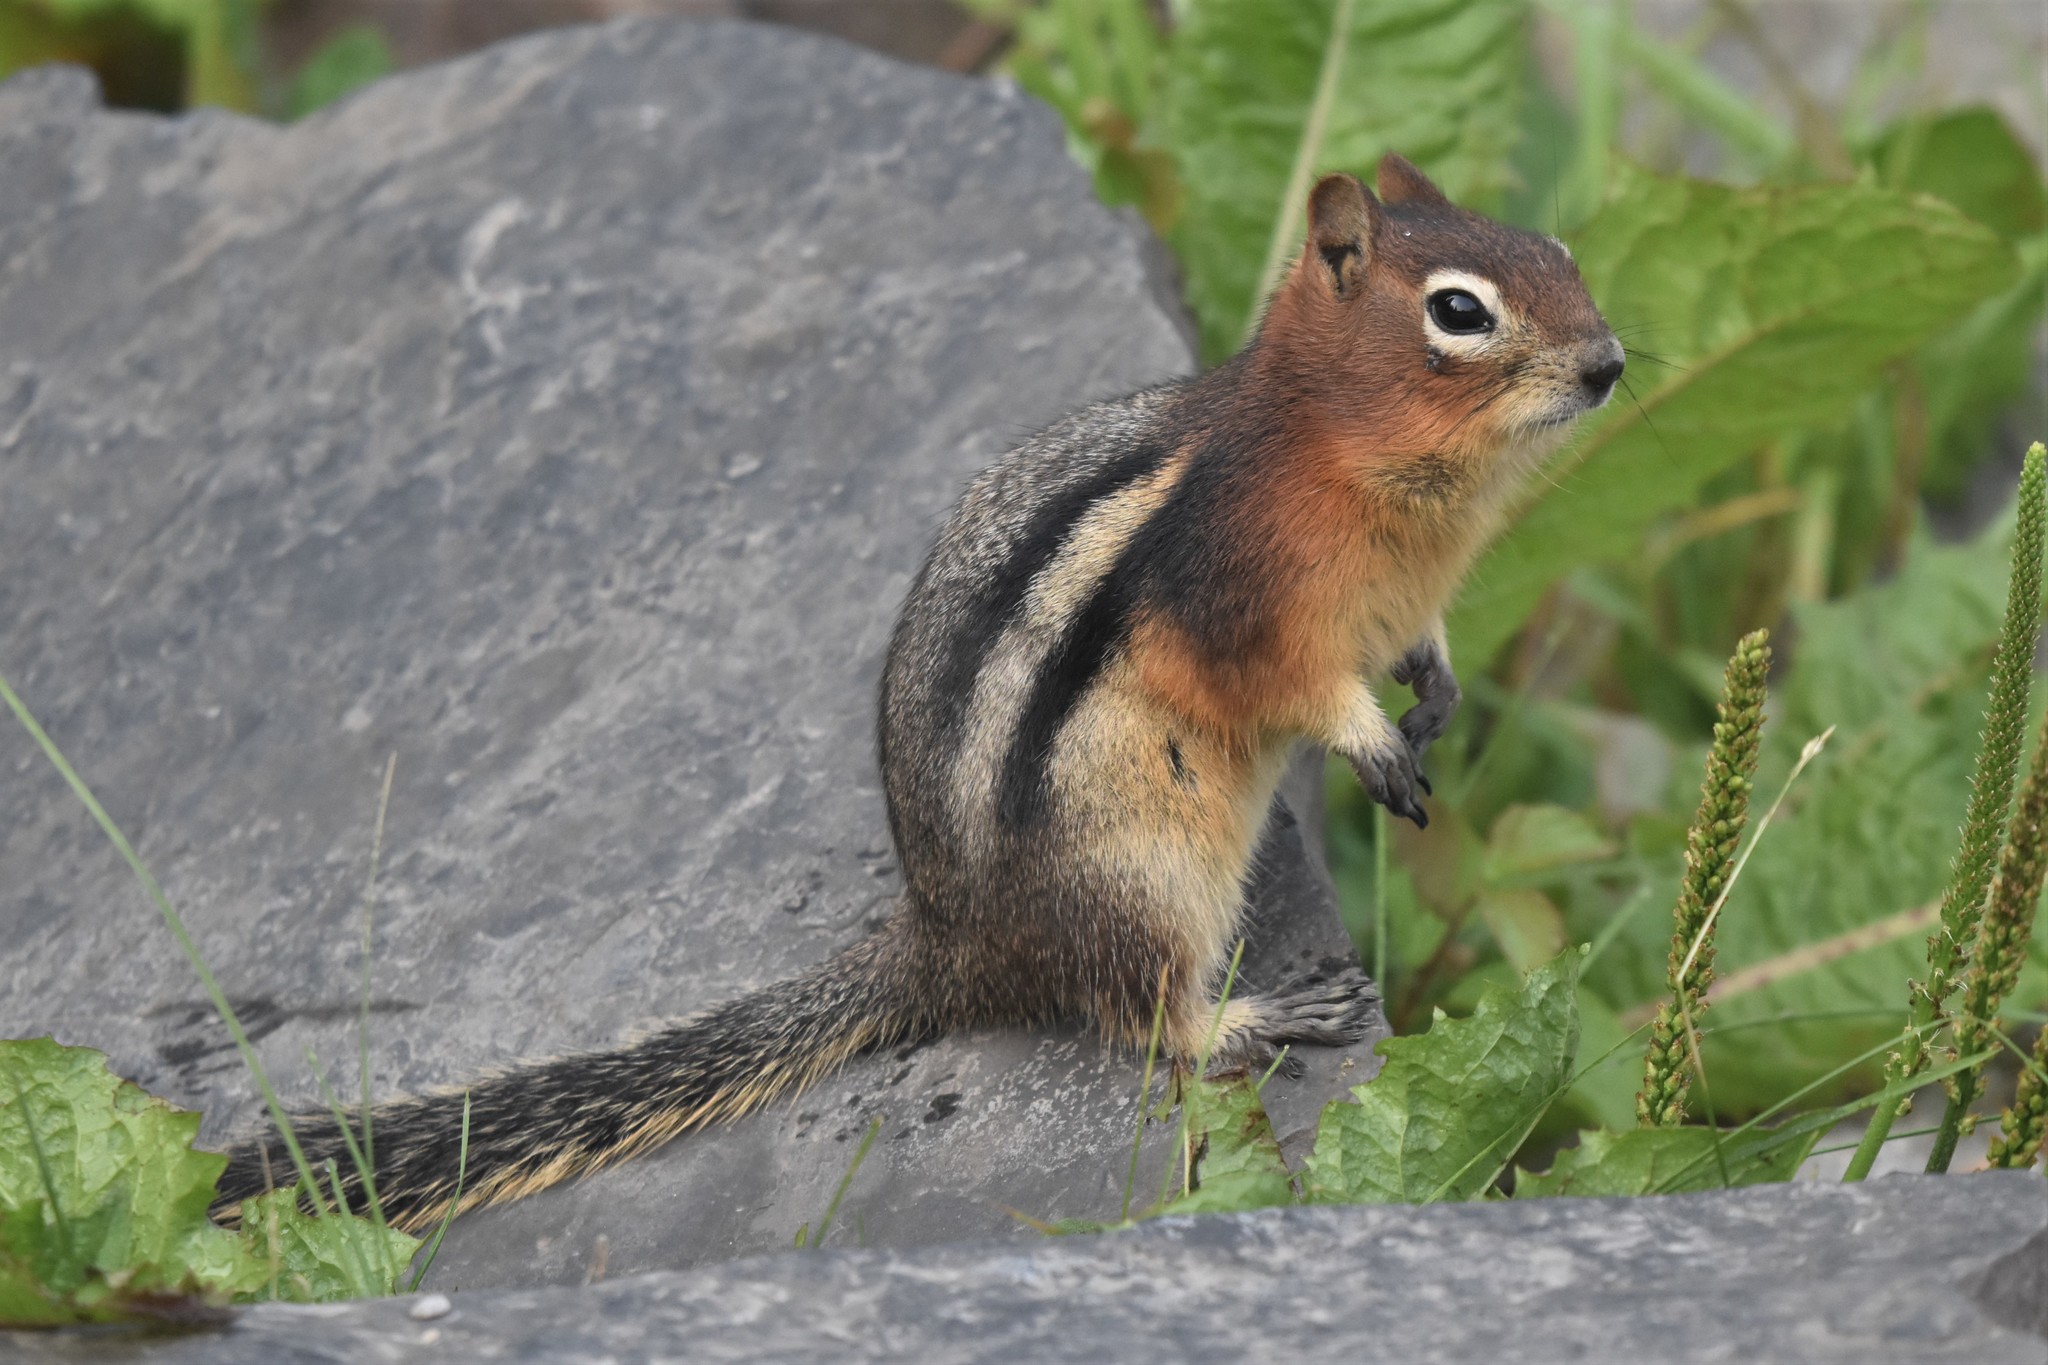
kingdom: Animalia
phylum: Chordata
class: Mammalia
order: Rodentia
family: Sciuridae
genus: Callospermophilus
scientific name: Callospermophilus lateralis
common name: Golden-mantled ground squirrel
